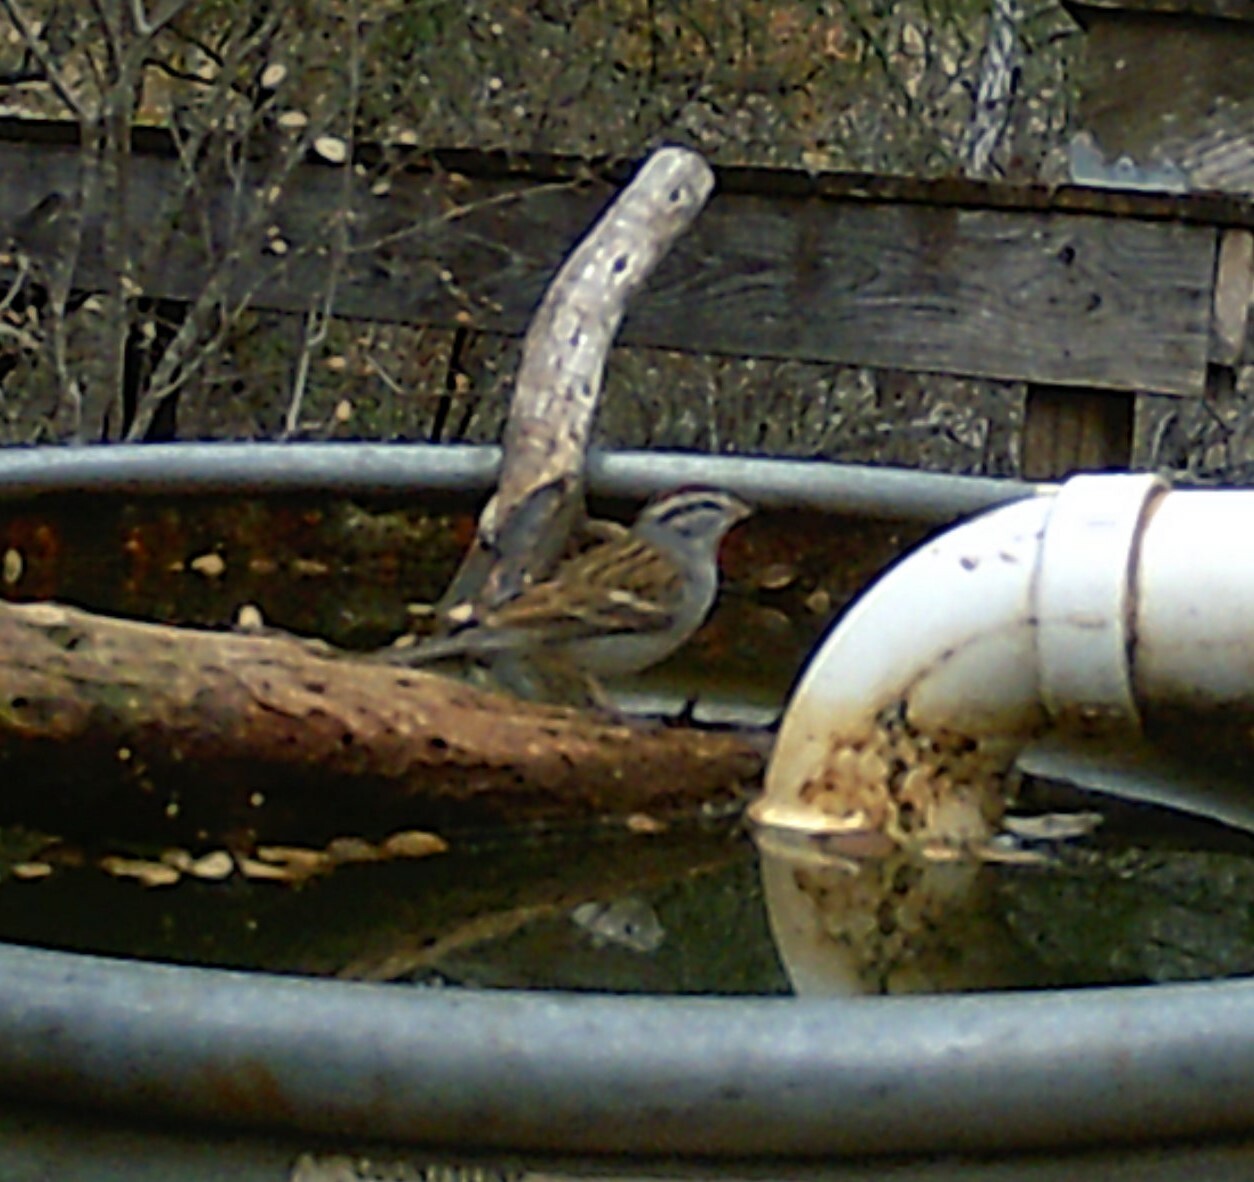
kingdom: Animalia
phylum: Chordata
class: Aves
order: Passeriformes
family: Passerellidae
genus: Spizella
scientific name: Spizella passerina
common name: Chipping sparrow
